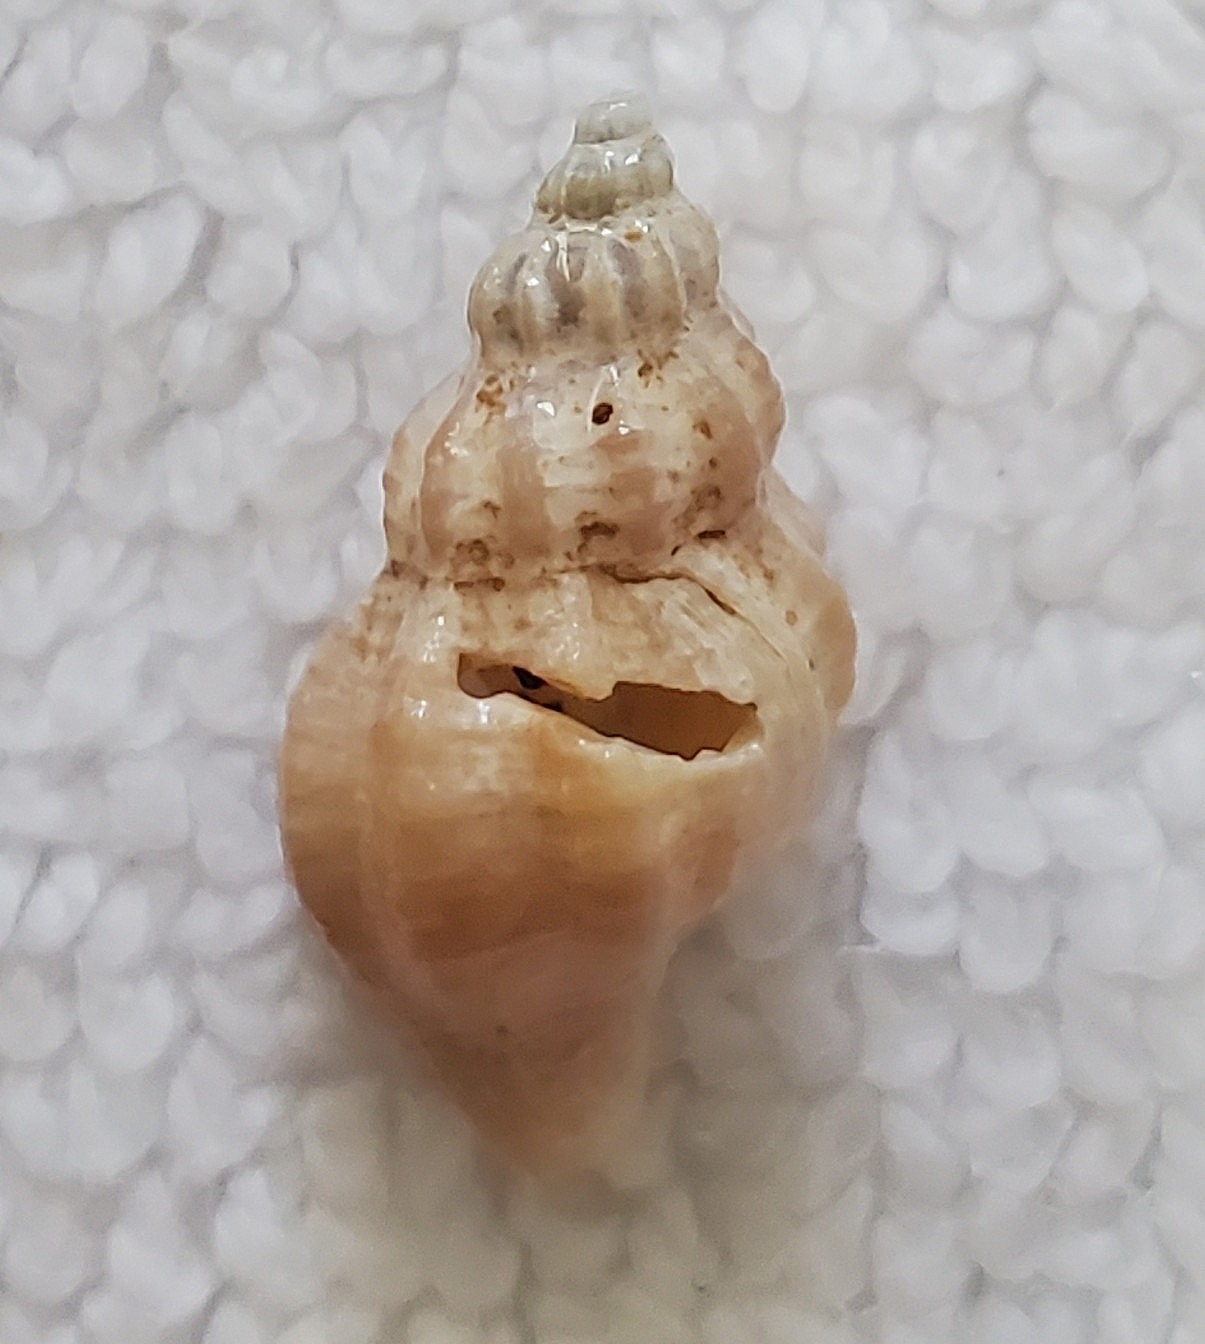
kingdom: Animalia
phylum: Mollusca
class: Gastropoda
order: Neogastropoda
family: Muricidae
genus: Urosalpinx
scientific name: Urosalpinx cinerea
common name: American sting winkle
